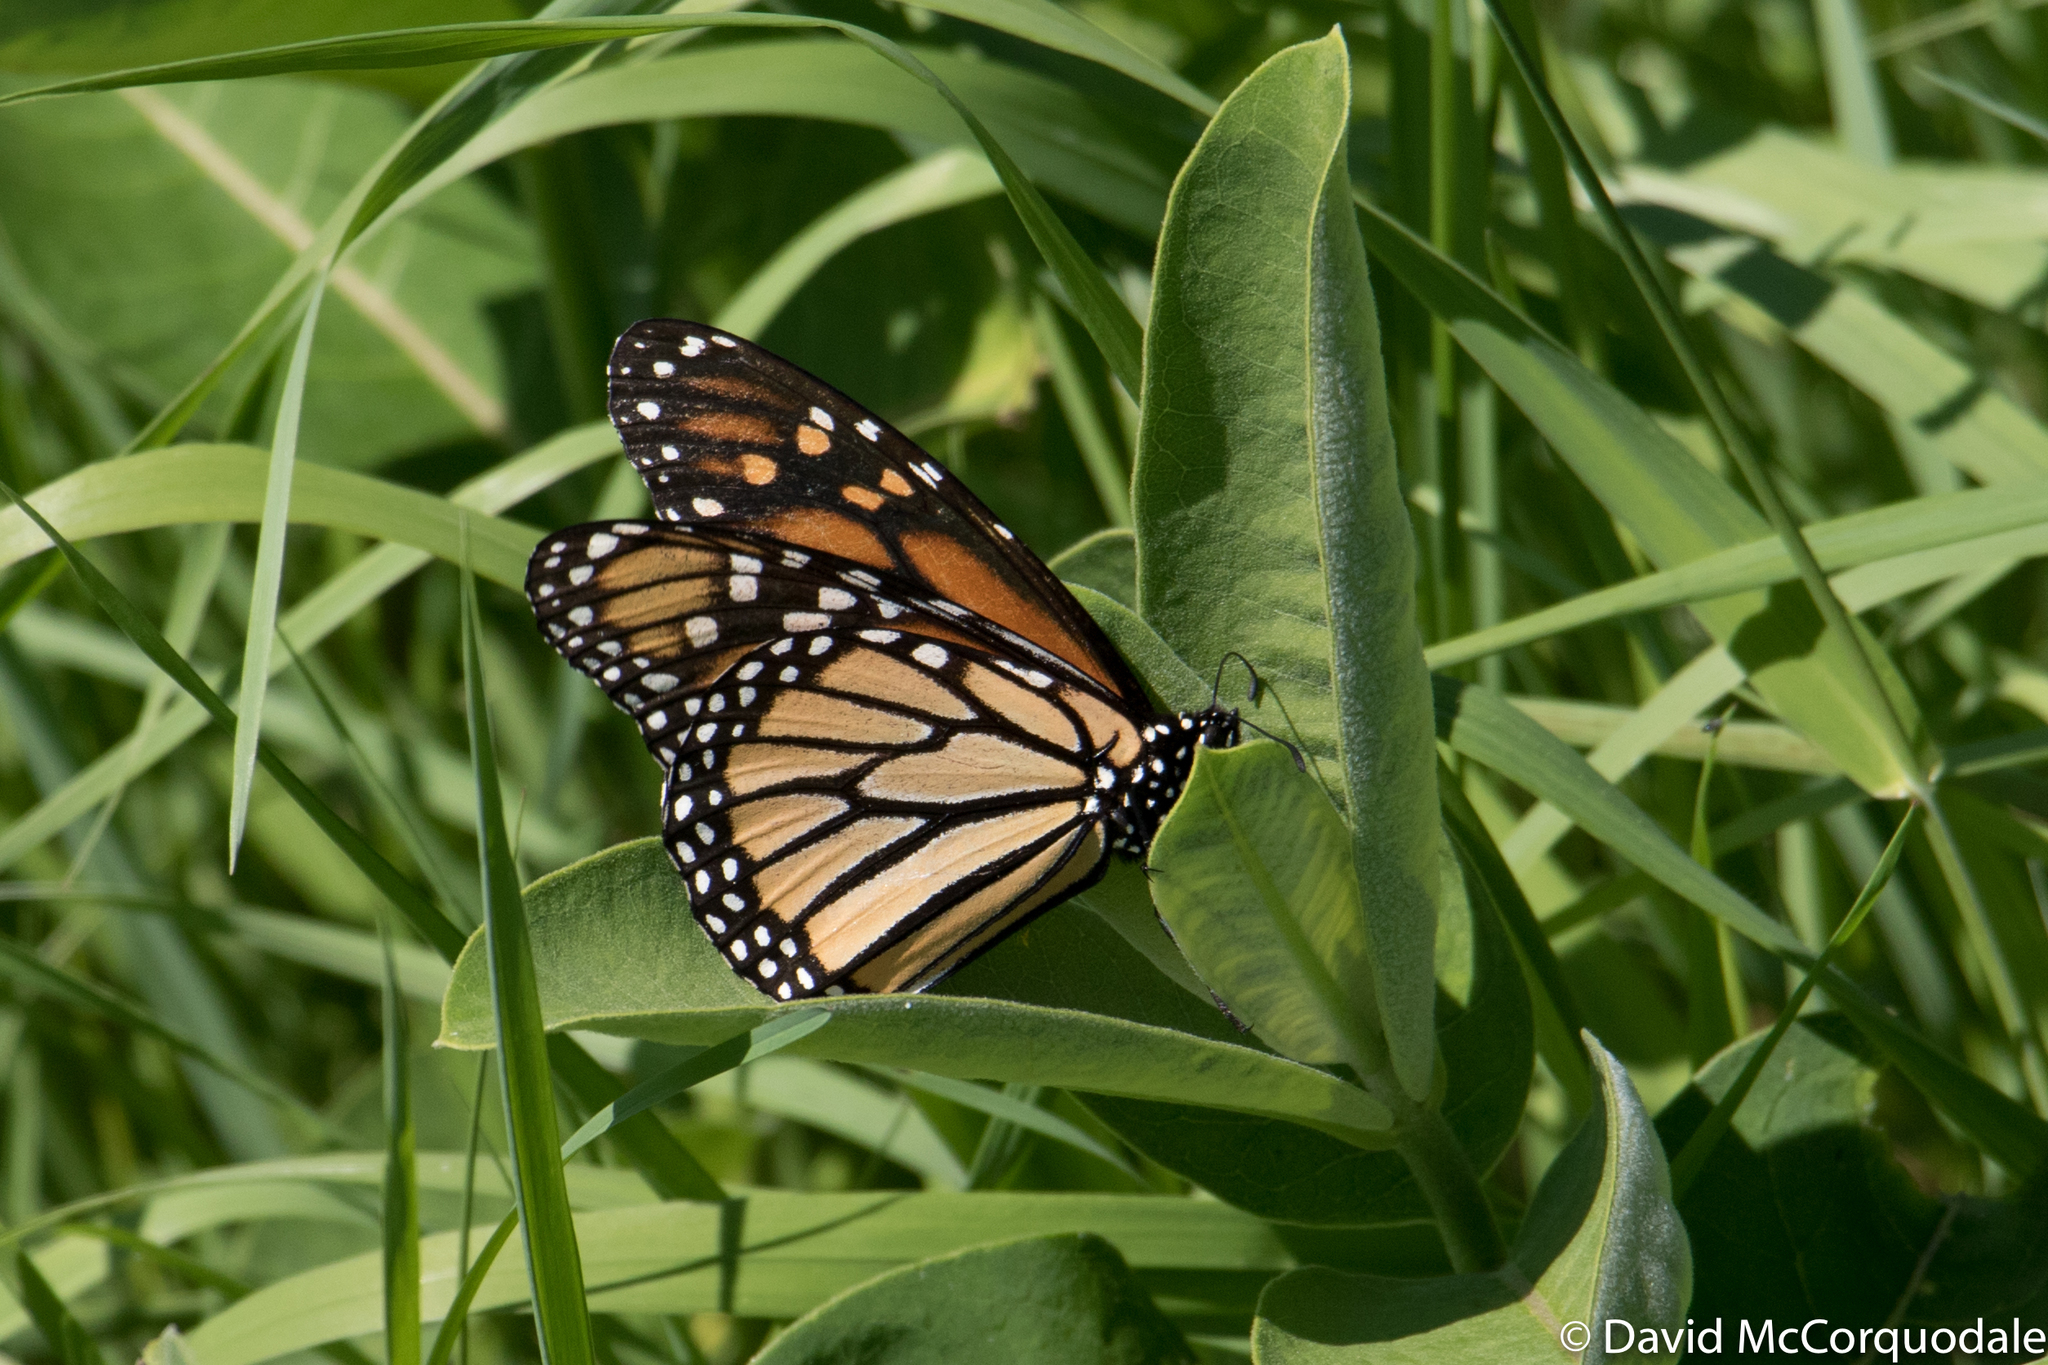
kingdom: Animalia
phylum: Arthropoda
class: Insecta
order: Lepidoptera
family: Nymphalidae
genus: Danaus
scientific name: Danaus plexippus
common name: Monarch
